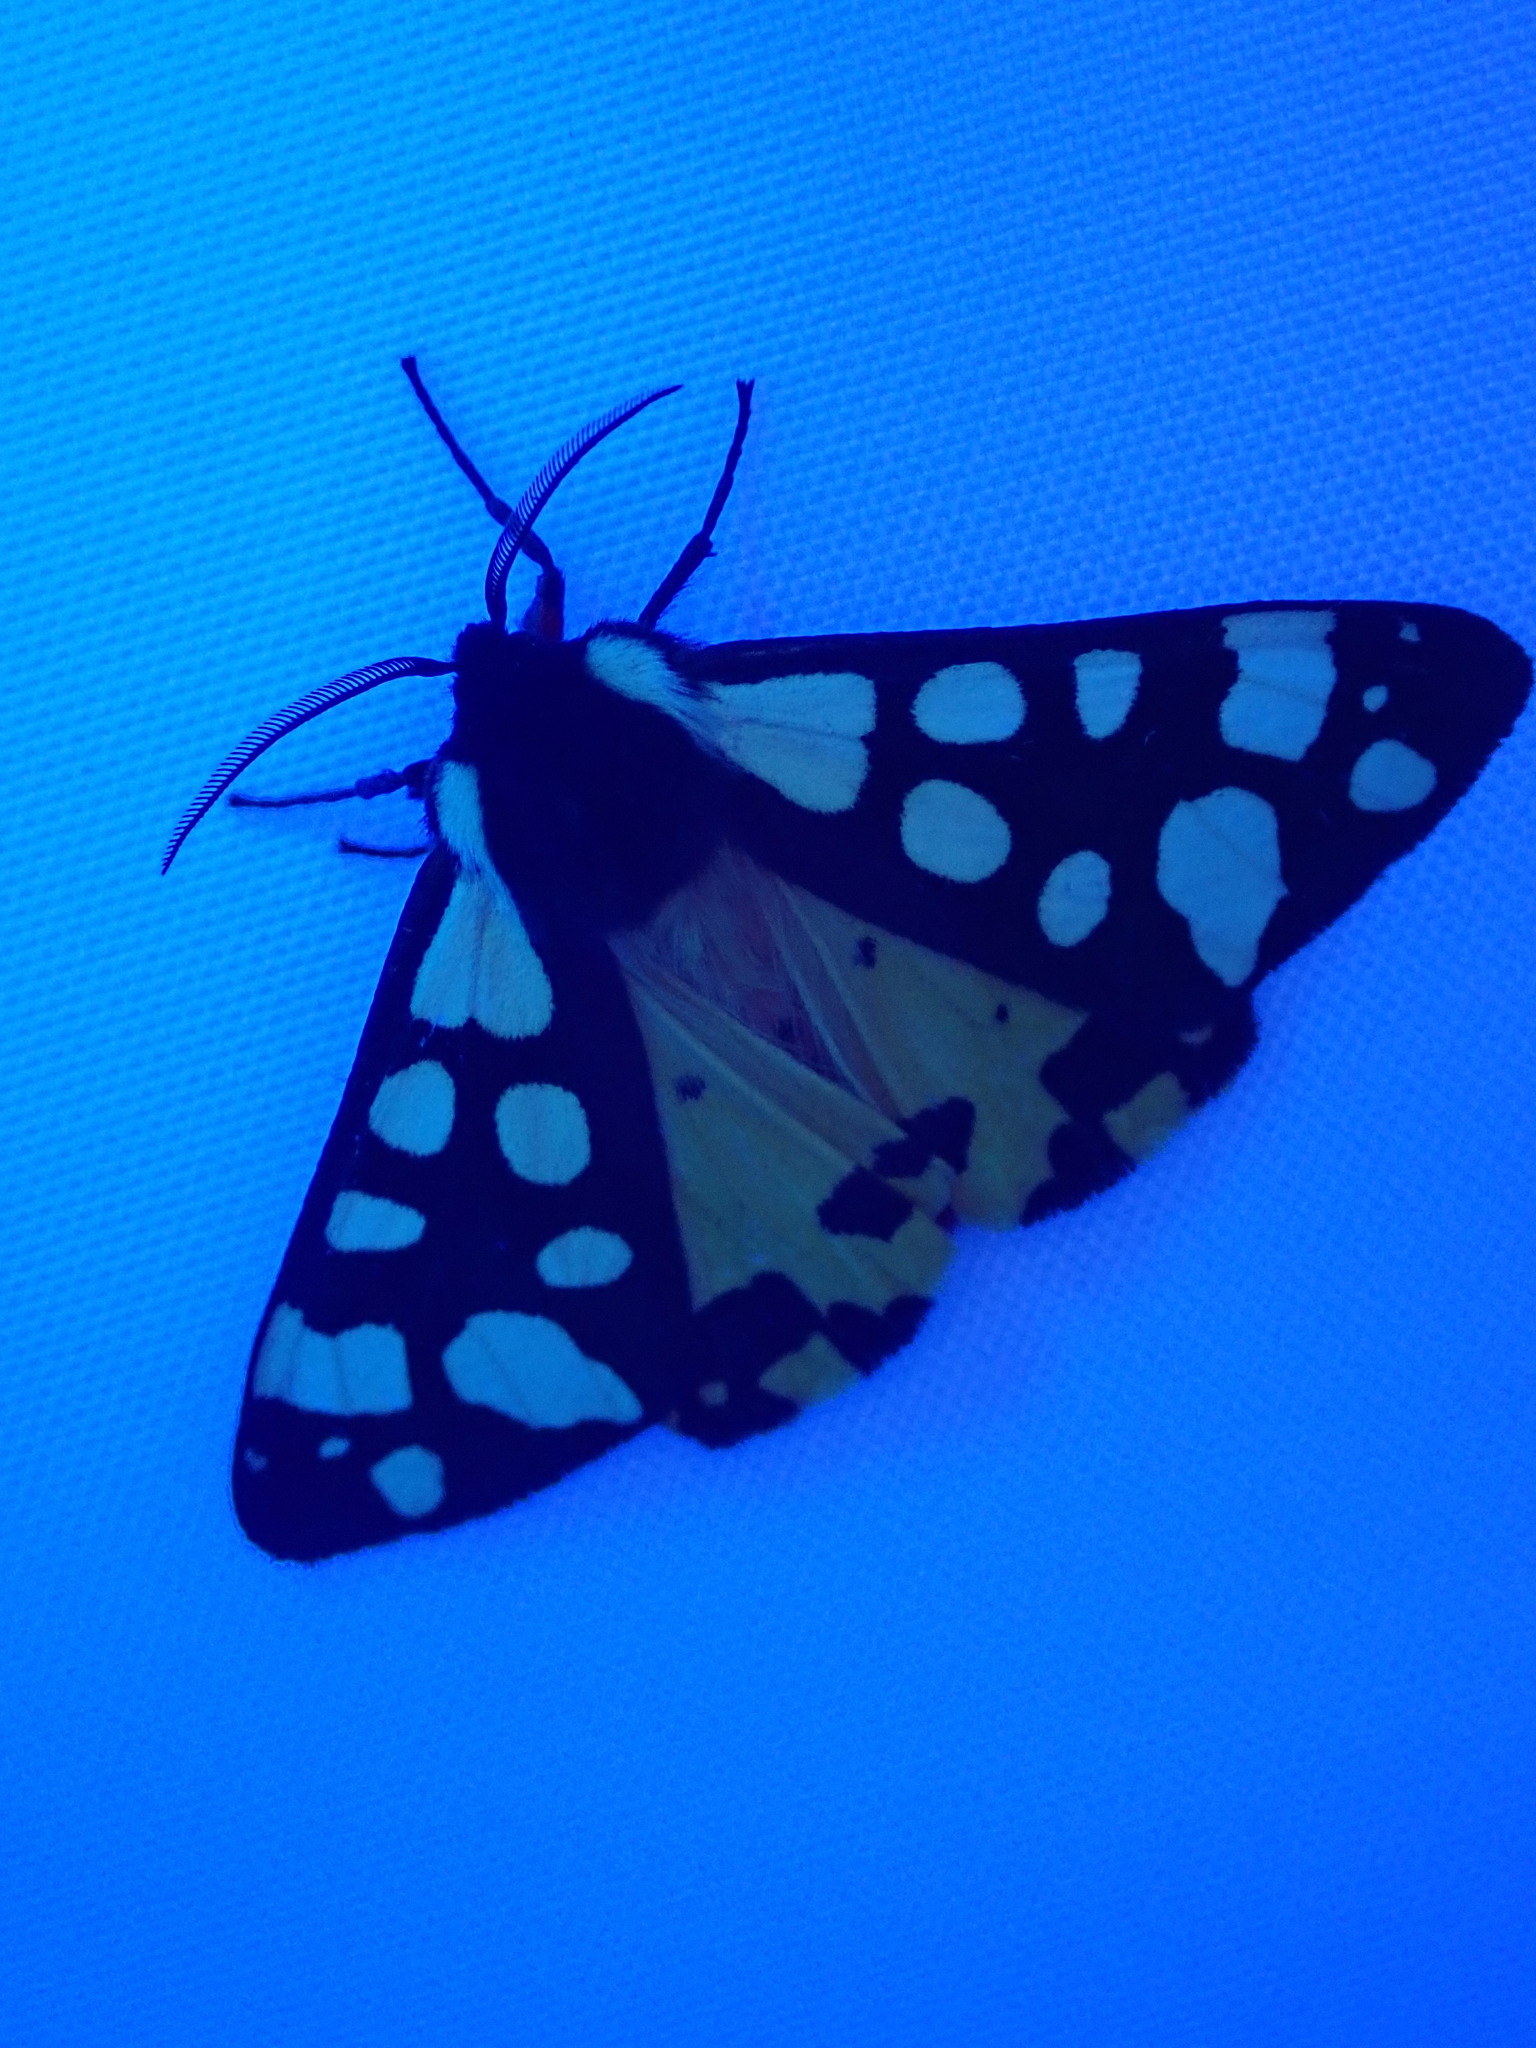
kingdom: Animalia
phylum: Arthropoda
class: Insecta
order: Lepidoptera
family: Erebidae
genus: Epicallia
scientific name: Epicallia villica
